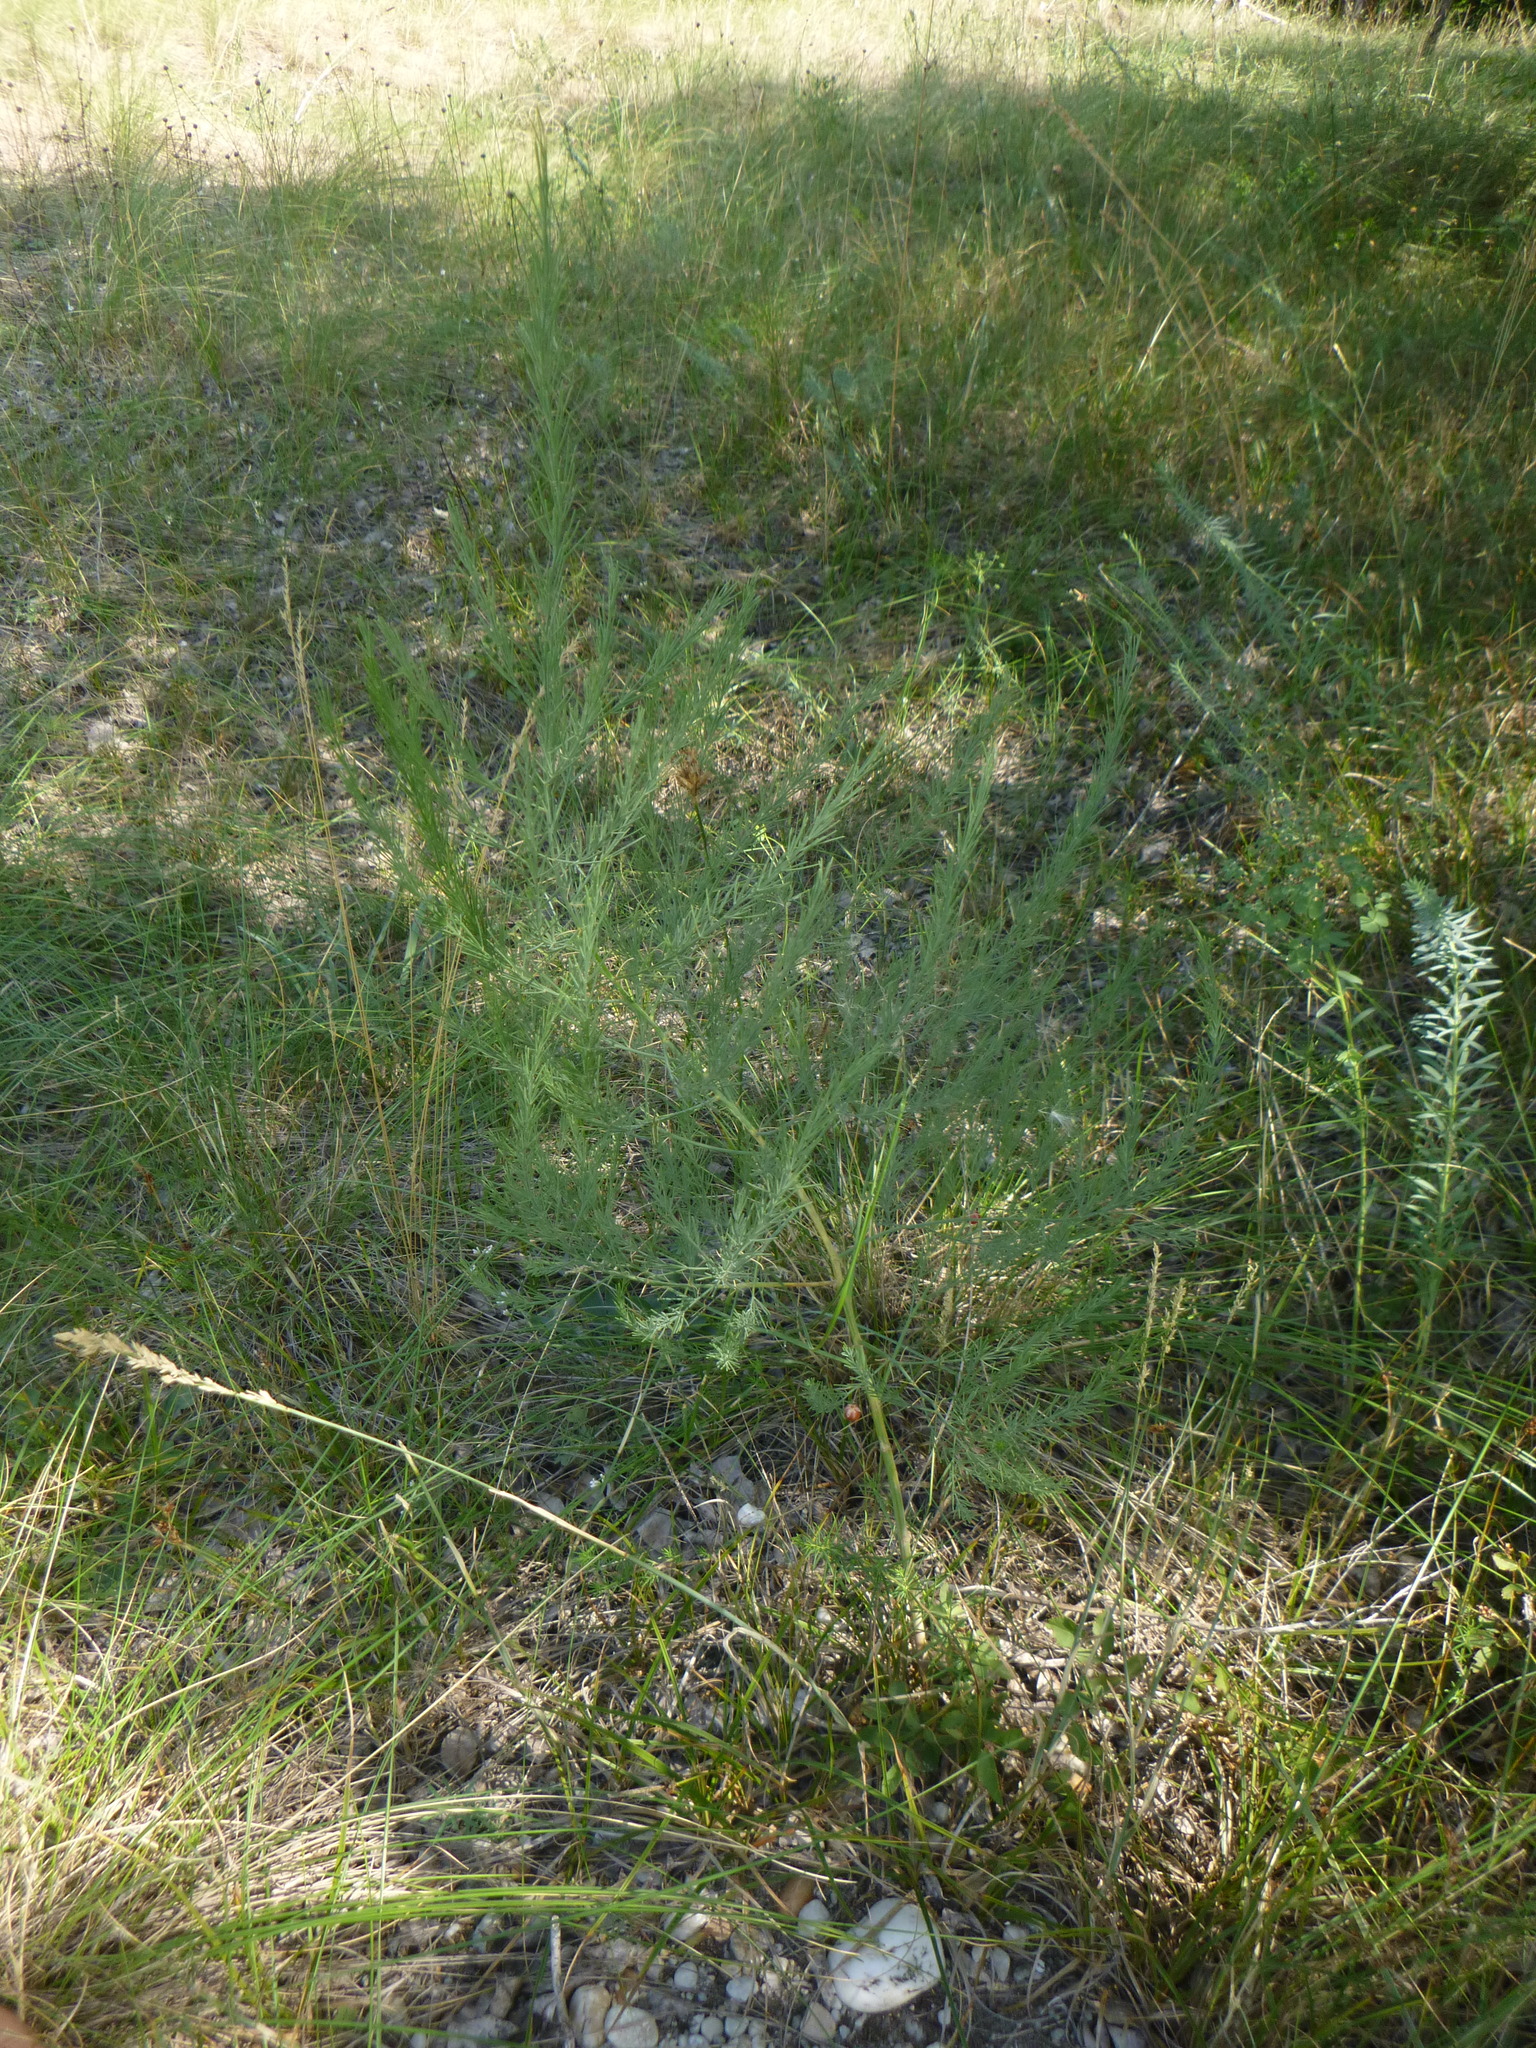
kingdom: Plantae
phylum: Tracheophyta
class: Liliopsida
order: Asparagales
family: Asparagaceae
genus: Asparagus
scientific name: Asparagus officinalis
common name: Garden asparagus
